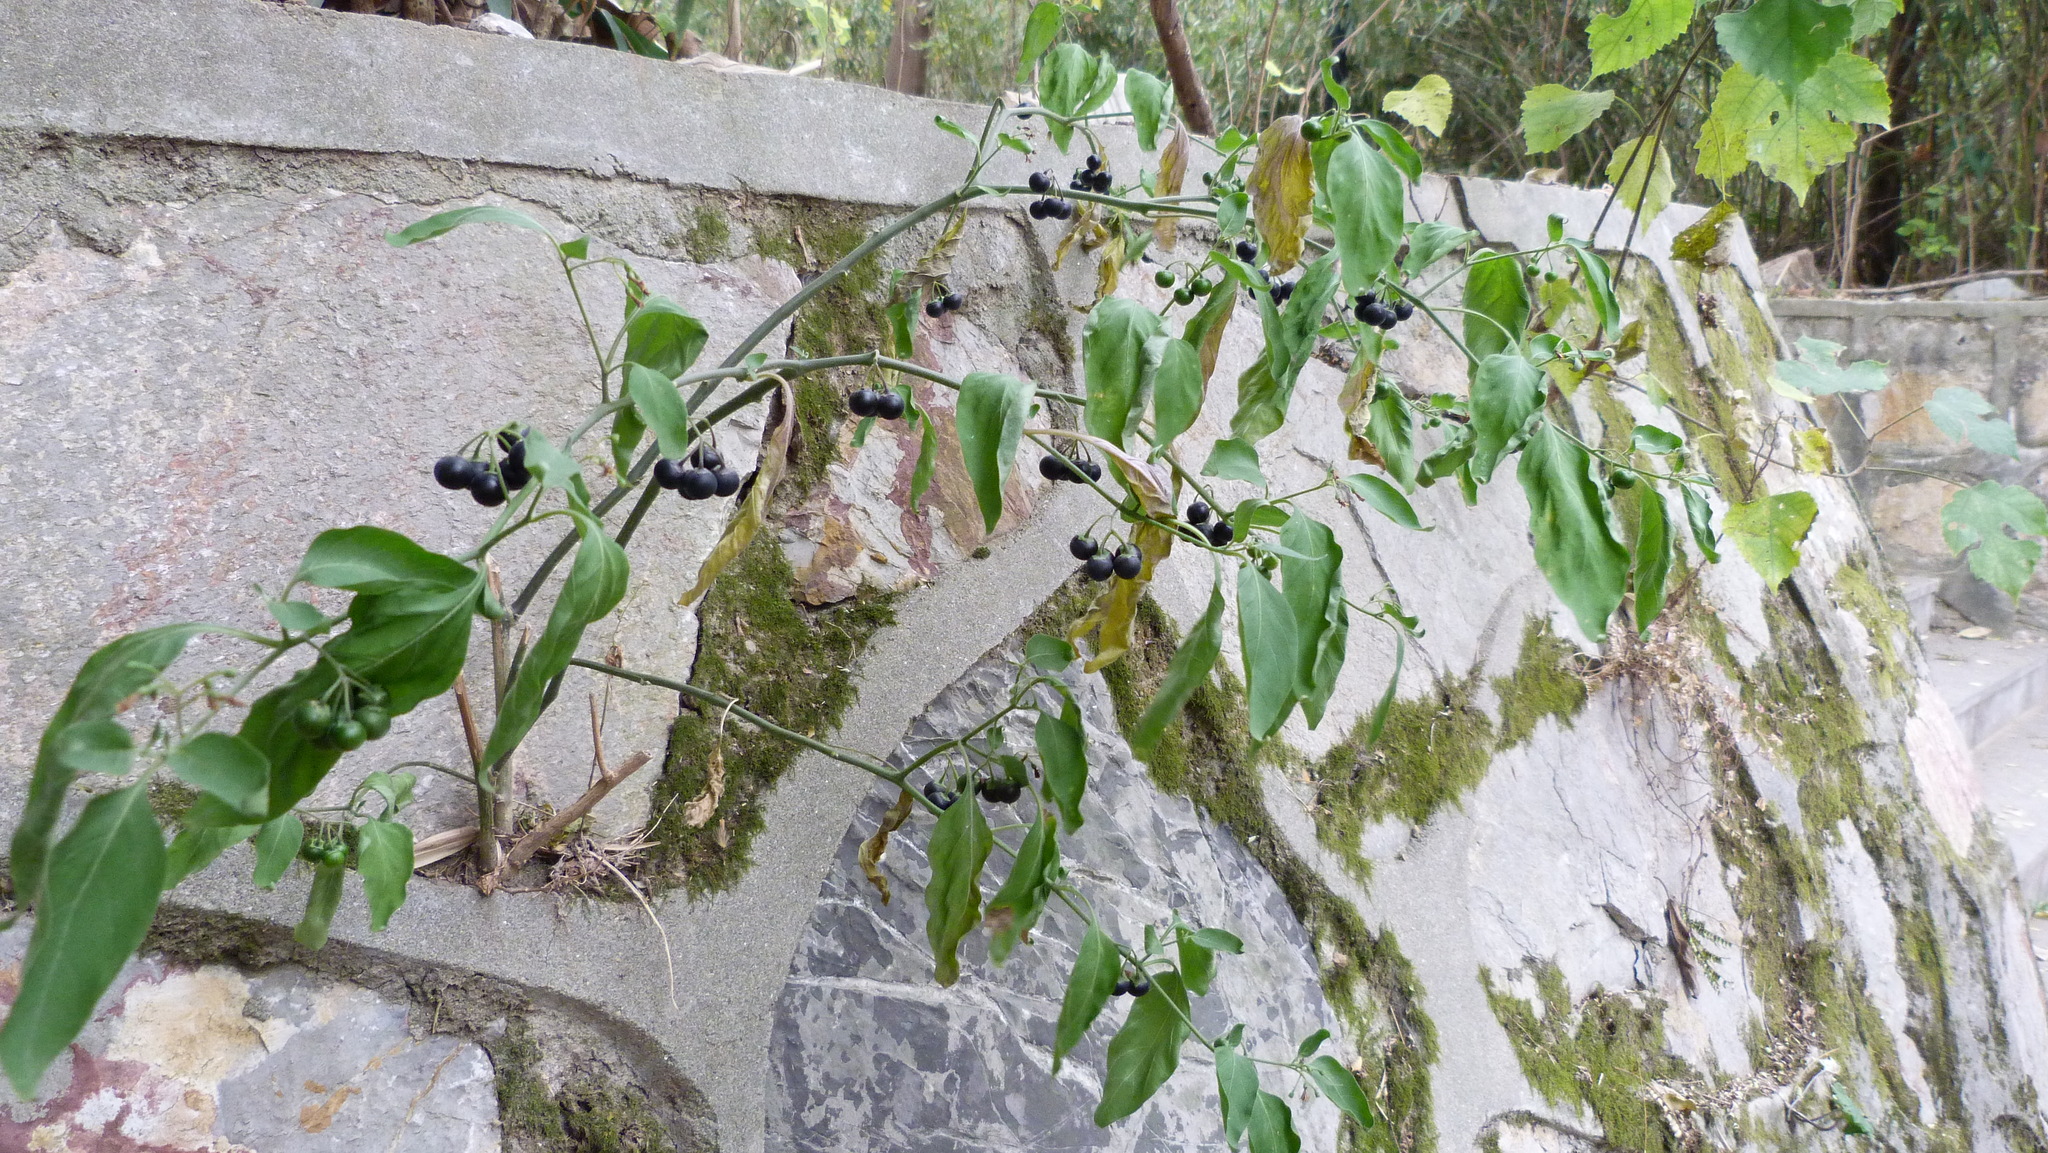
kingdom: Plantae
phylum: Tracheophyta
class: Magnoliopsida
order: Solanales
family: Solanaceae
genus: Solanum
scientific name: Solanum nigrum
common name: Black nightshade
